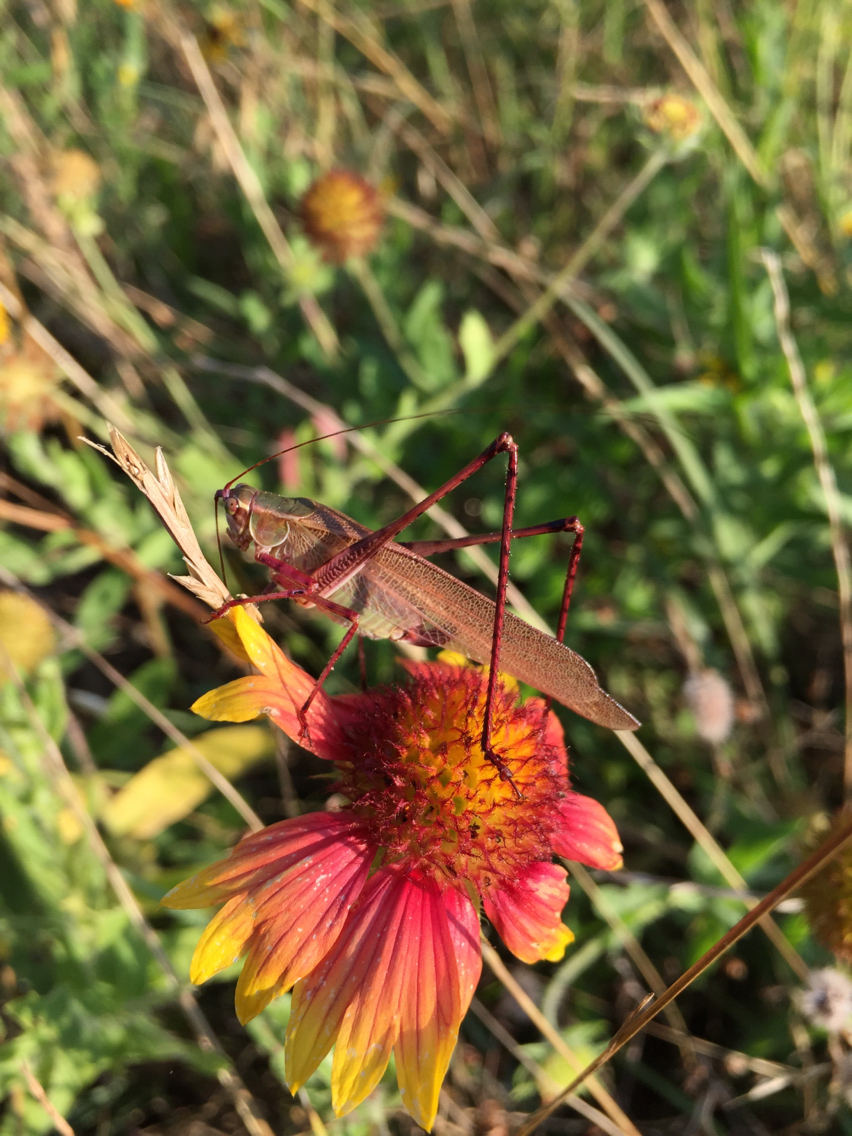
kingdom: Animalia
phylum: Arthropoda
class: Insecta
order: Orthoptera
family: Tettigoniidae
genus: Scudderia
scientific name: Scudderia furcata
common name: Fork-tailed bush katydid
